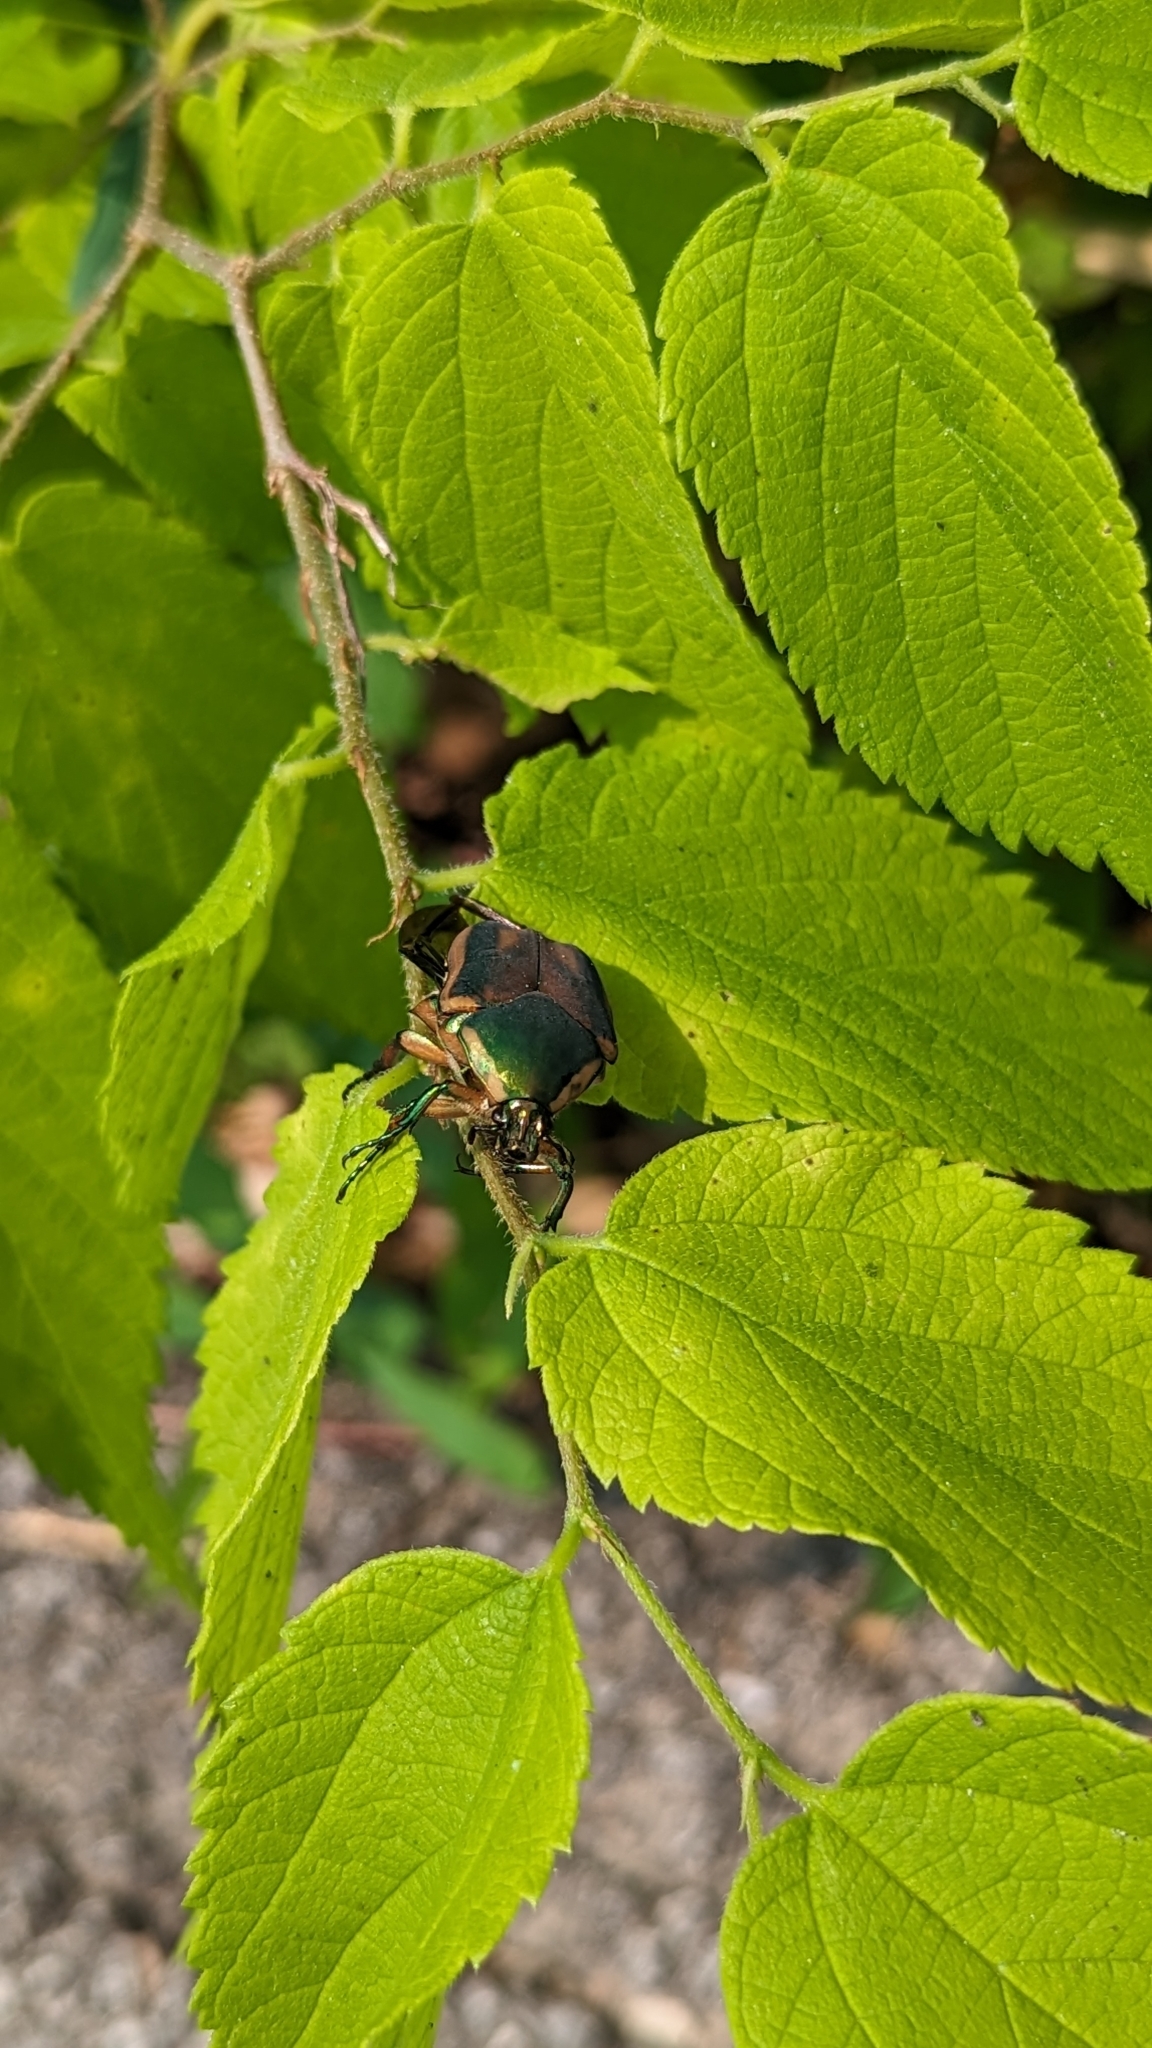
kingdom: Animalia
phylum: Arthropoda
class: Insecta
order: Coleoptera
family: Scarabaeidae
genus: Cotinis
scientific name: Cotinis nitida
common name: Common green june beetle
